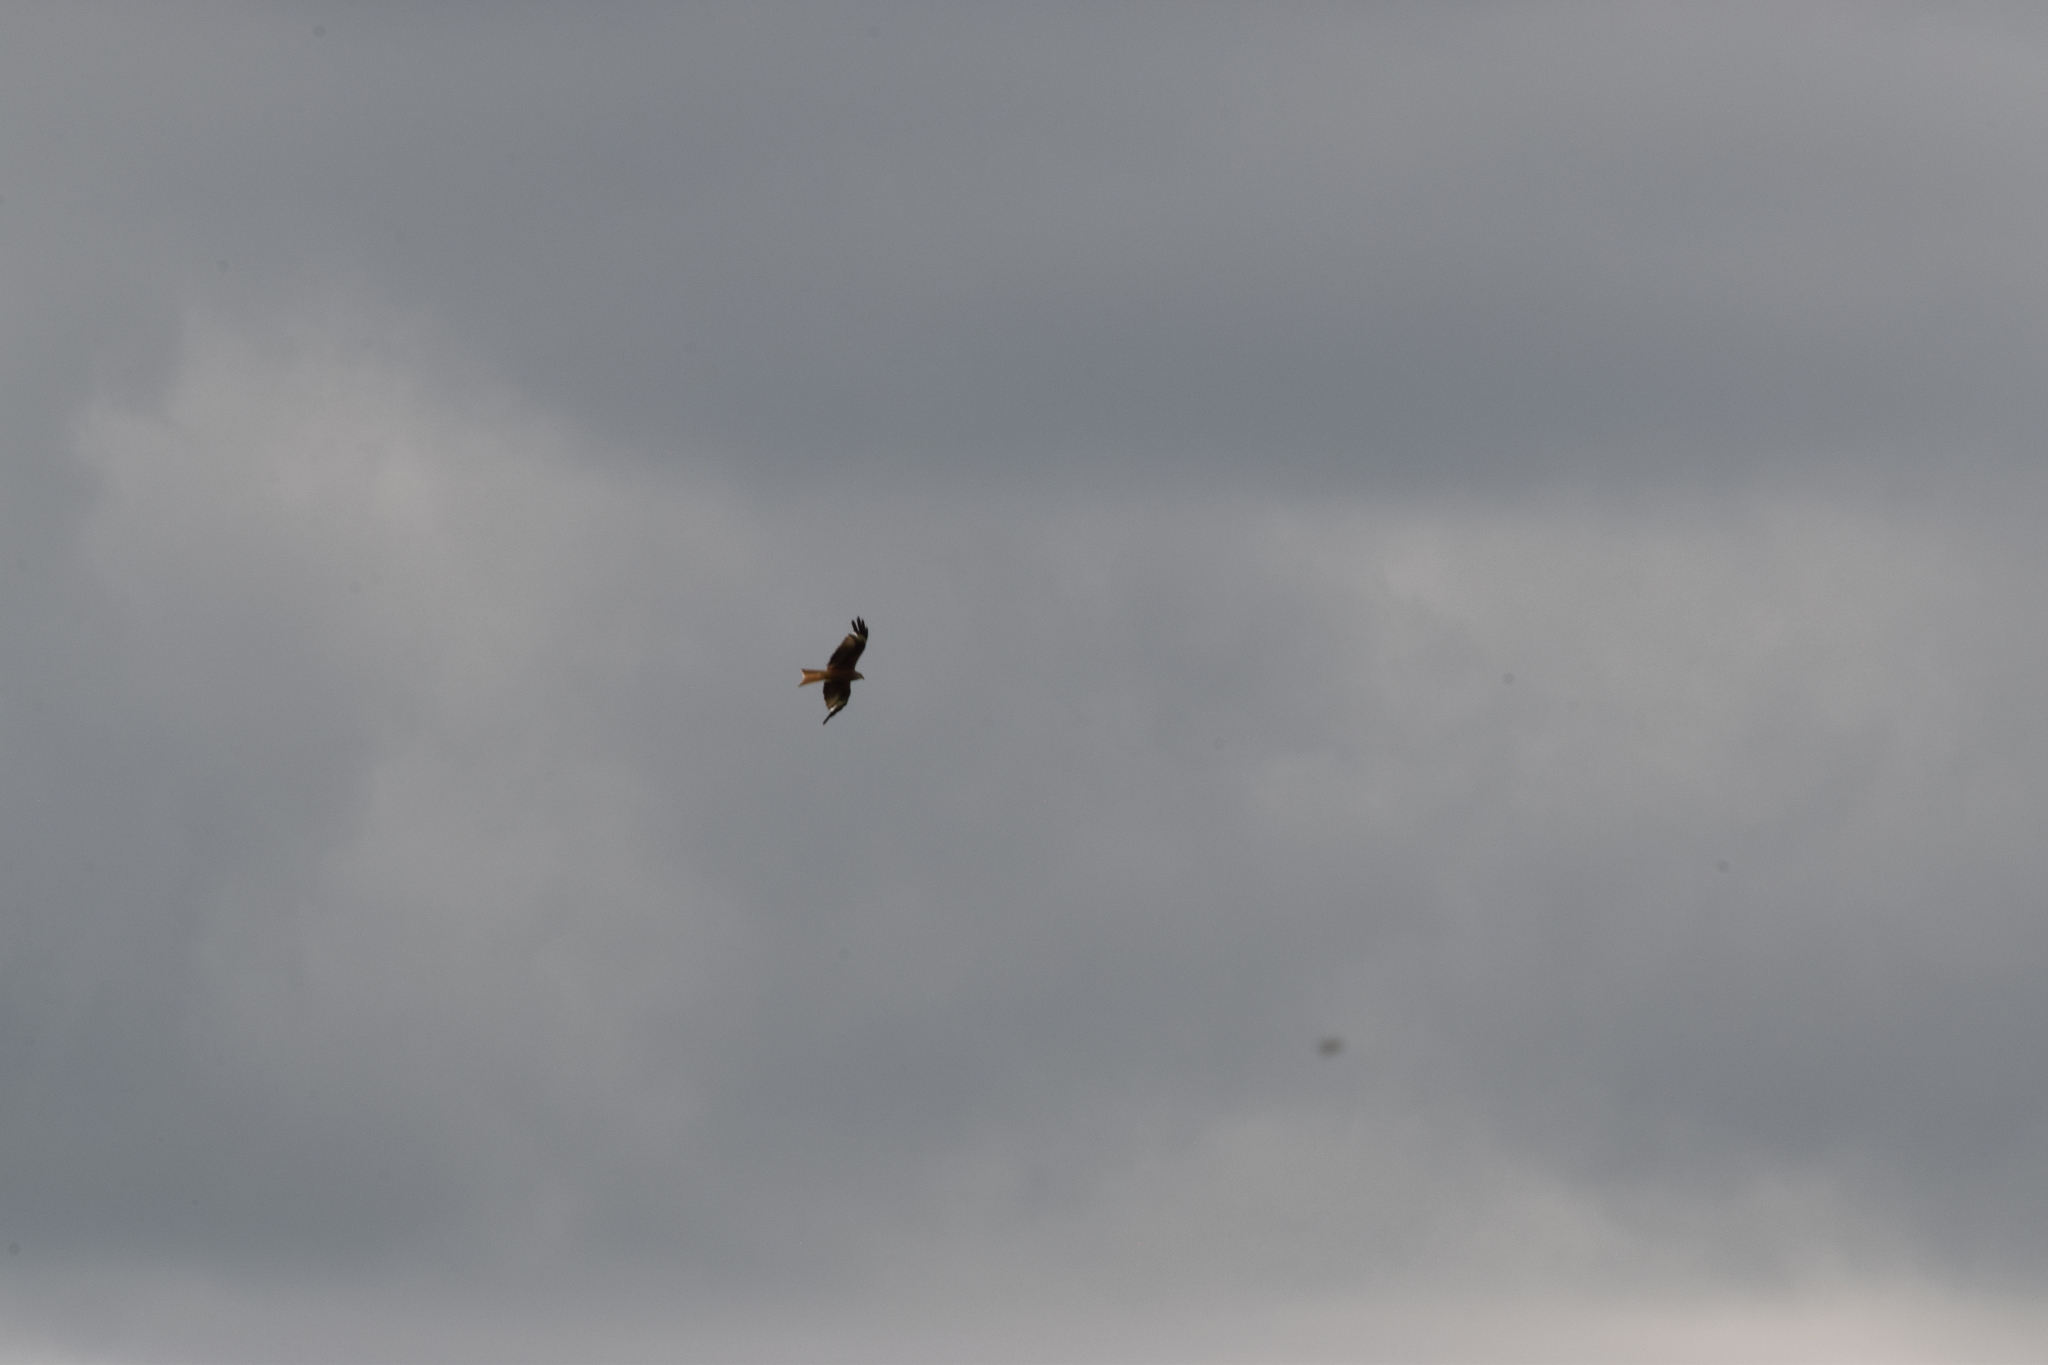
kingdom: Animalia
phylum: Chordata
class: Aves
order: Accipitriformes
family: Accipitridae
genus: Milvus
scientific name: Milvus milvus
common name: Red kite
